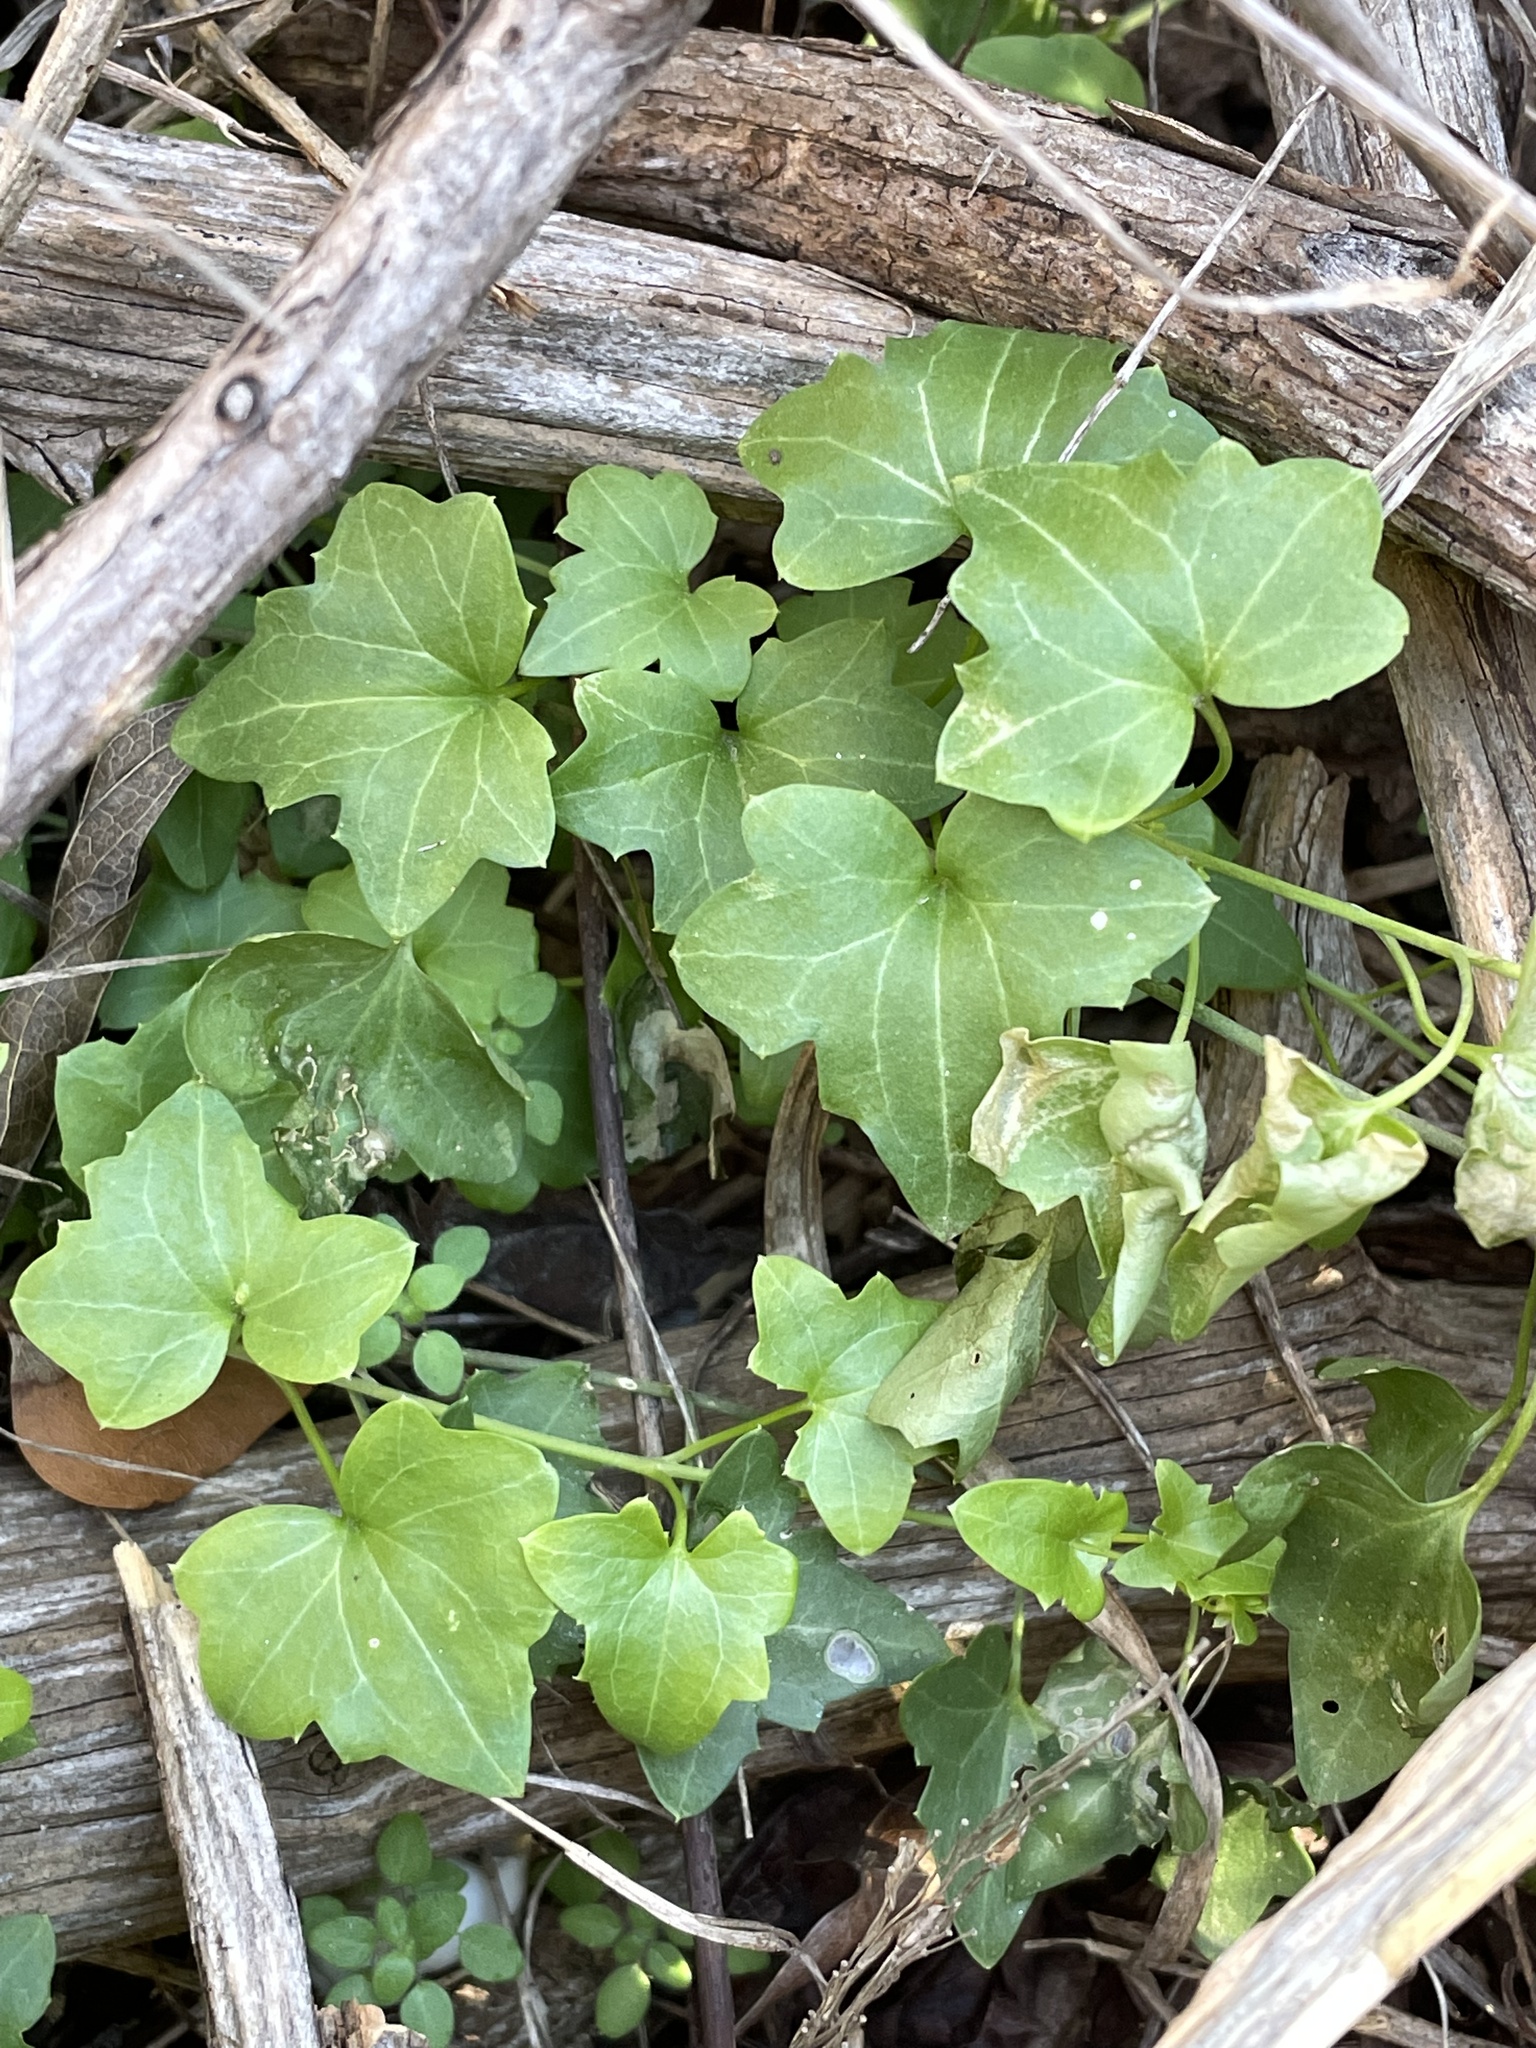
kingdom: Plantae
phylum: Tracheophyta
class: Magnoliopsida
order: Lamiales
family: Plantaginaceae
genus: Maurandella
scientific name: Maurandella antirrhiniflora
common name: Violet twining-snapdragon
